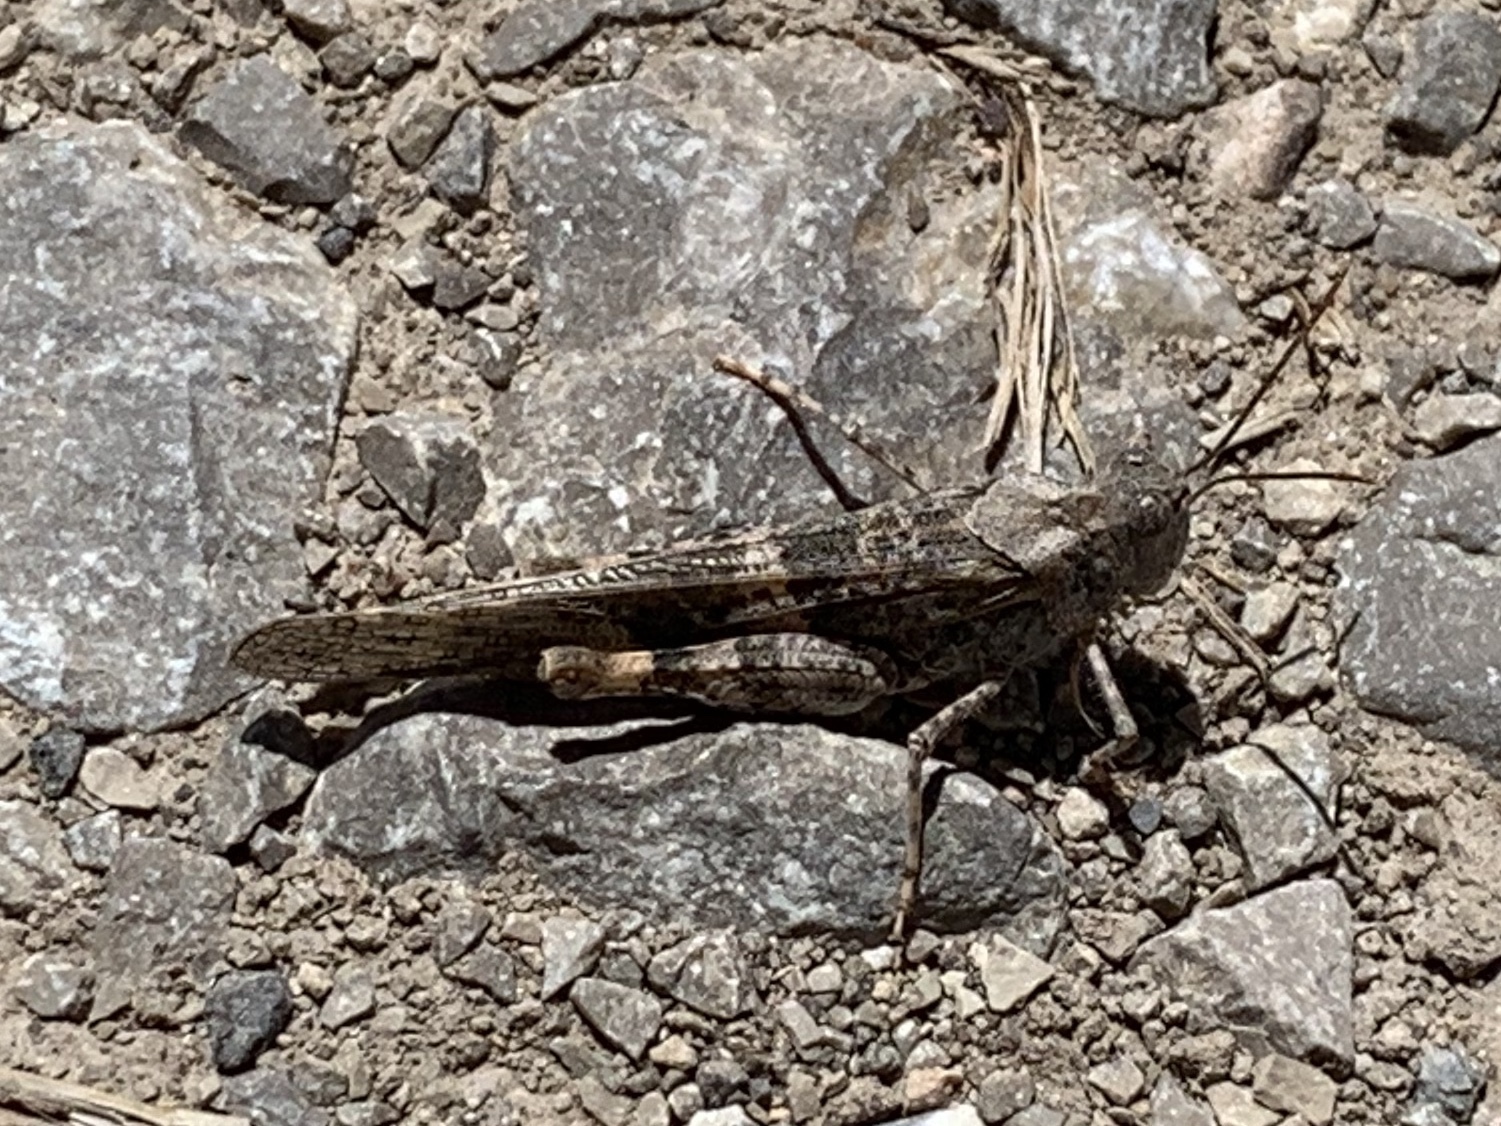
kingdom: Animalia
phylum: Arthropoda
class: Insecta
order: Orthoptera
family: Acrididae
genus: Trimerotropis
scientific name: Trimerotropis pallidipennis
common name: Pallid-winged grasshopper
